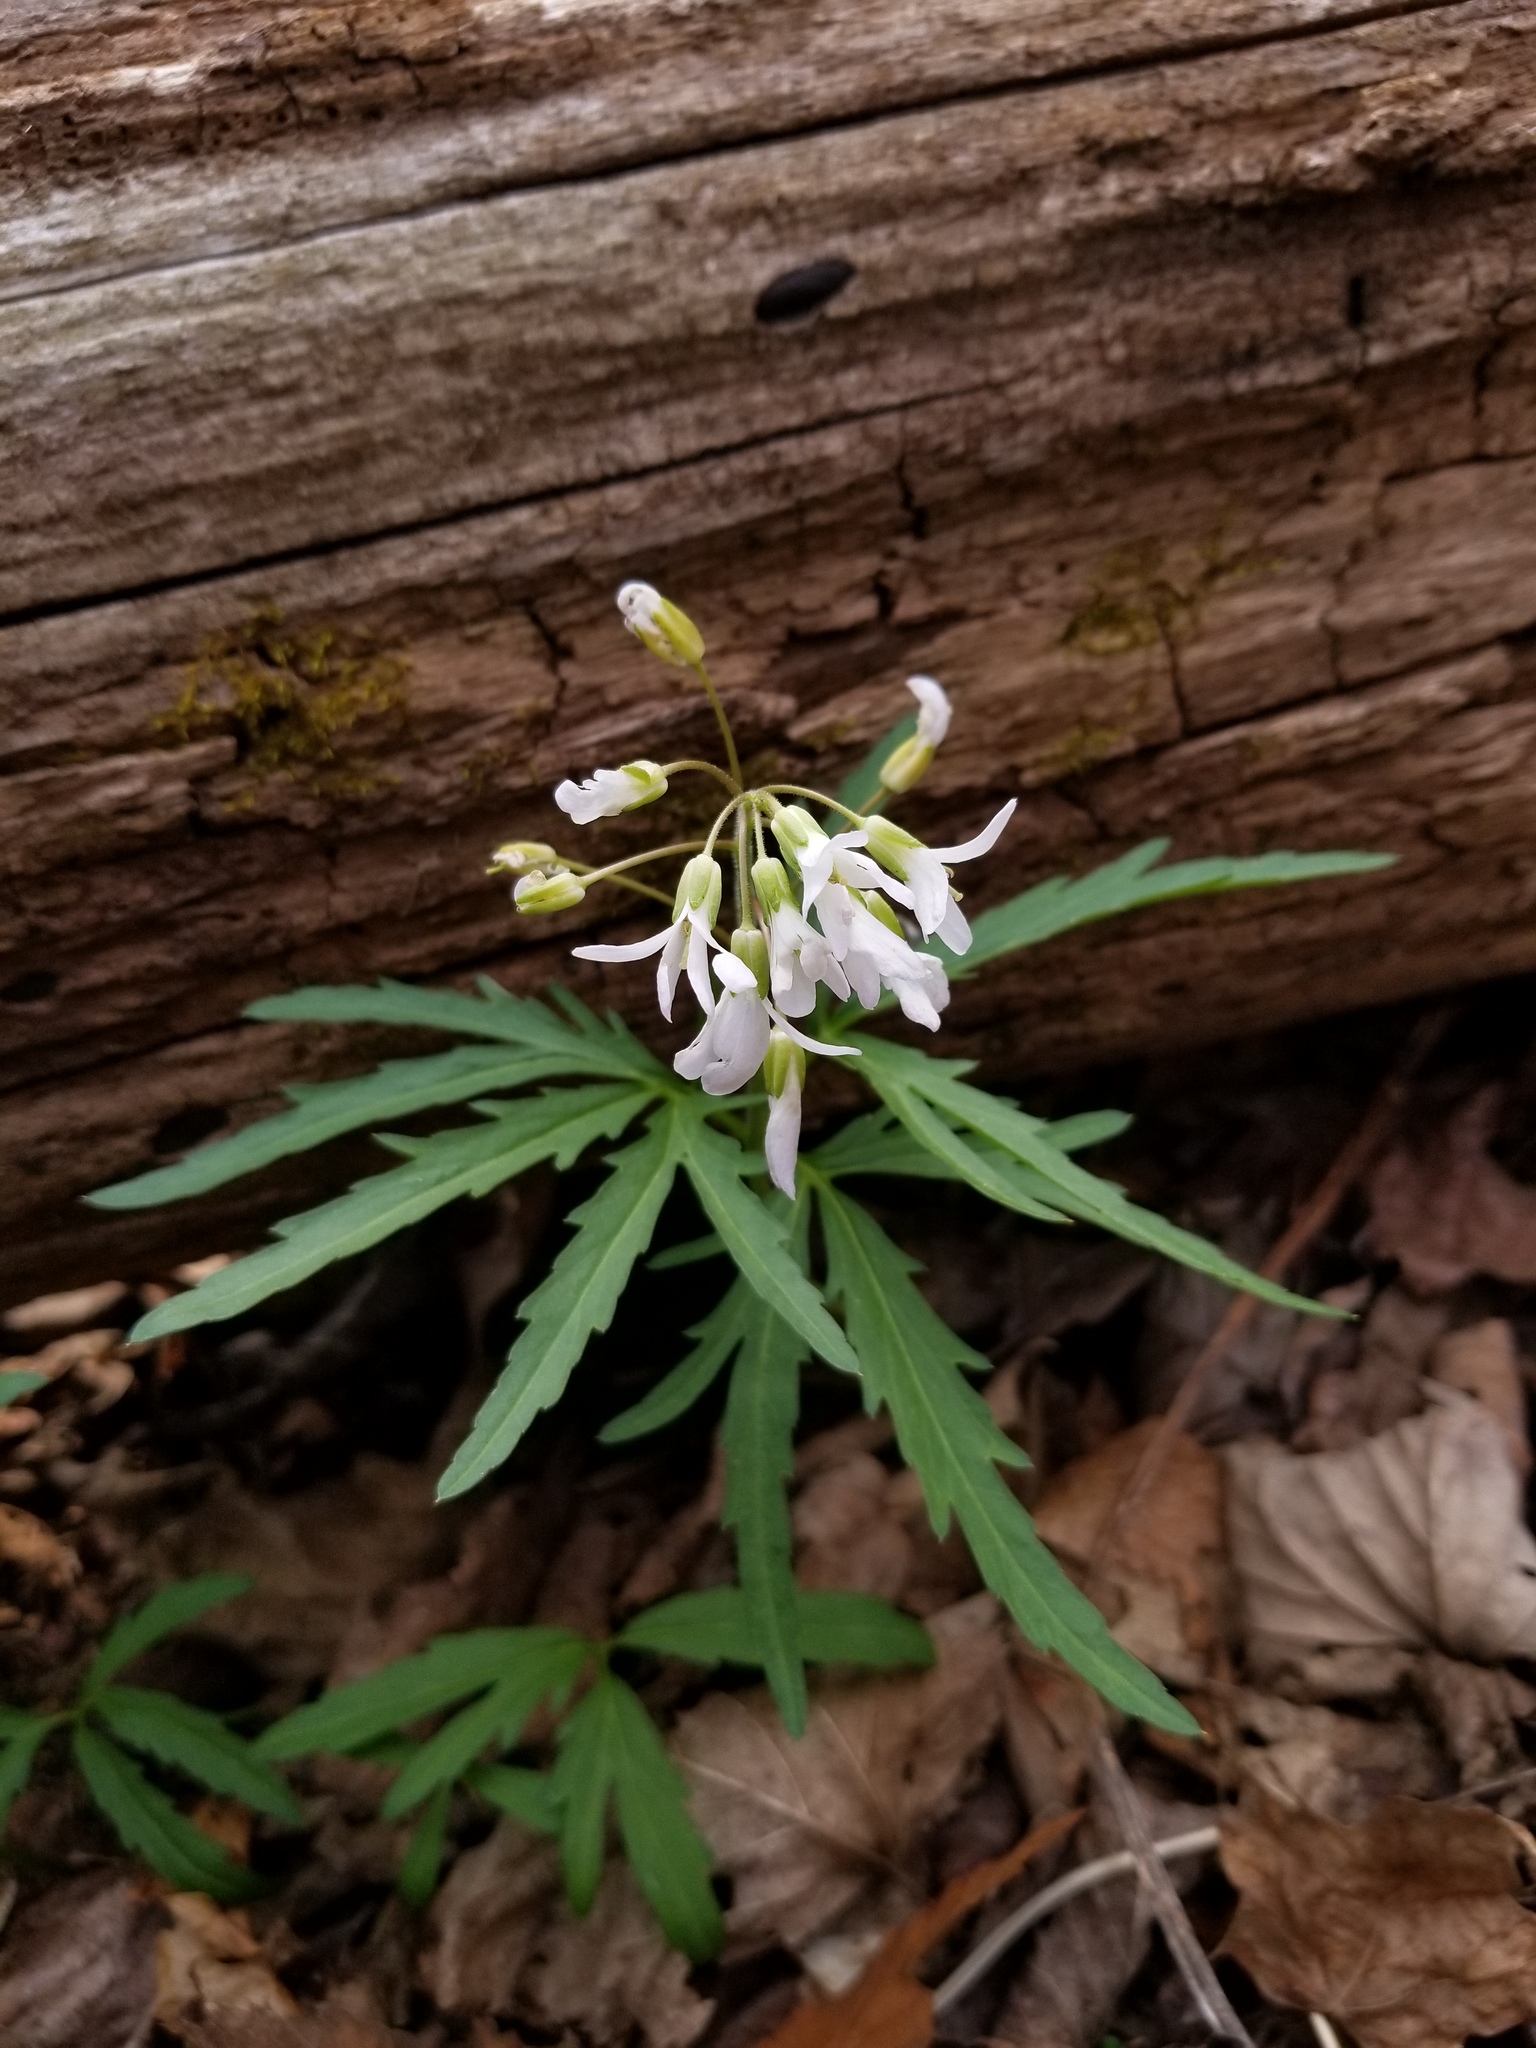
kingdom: Plantae
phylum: Tracheophyta
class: Magnoliopsida
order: Brassicales
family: Brassicaceae
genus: Cardamine
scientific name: Cardamine concatenata
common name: Cut-leaf toothcup
